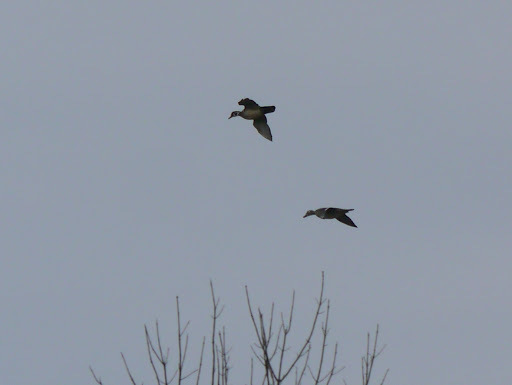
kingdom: Animalia
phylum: Chordata
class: Aves
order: Anseriformes
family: Anatidae
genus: Aix
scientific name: Aix sponsa
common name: Wood duck
